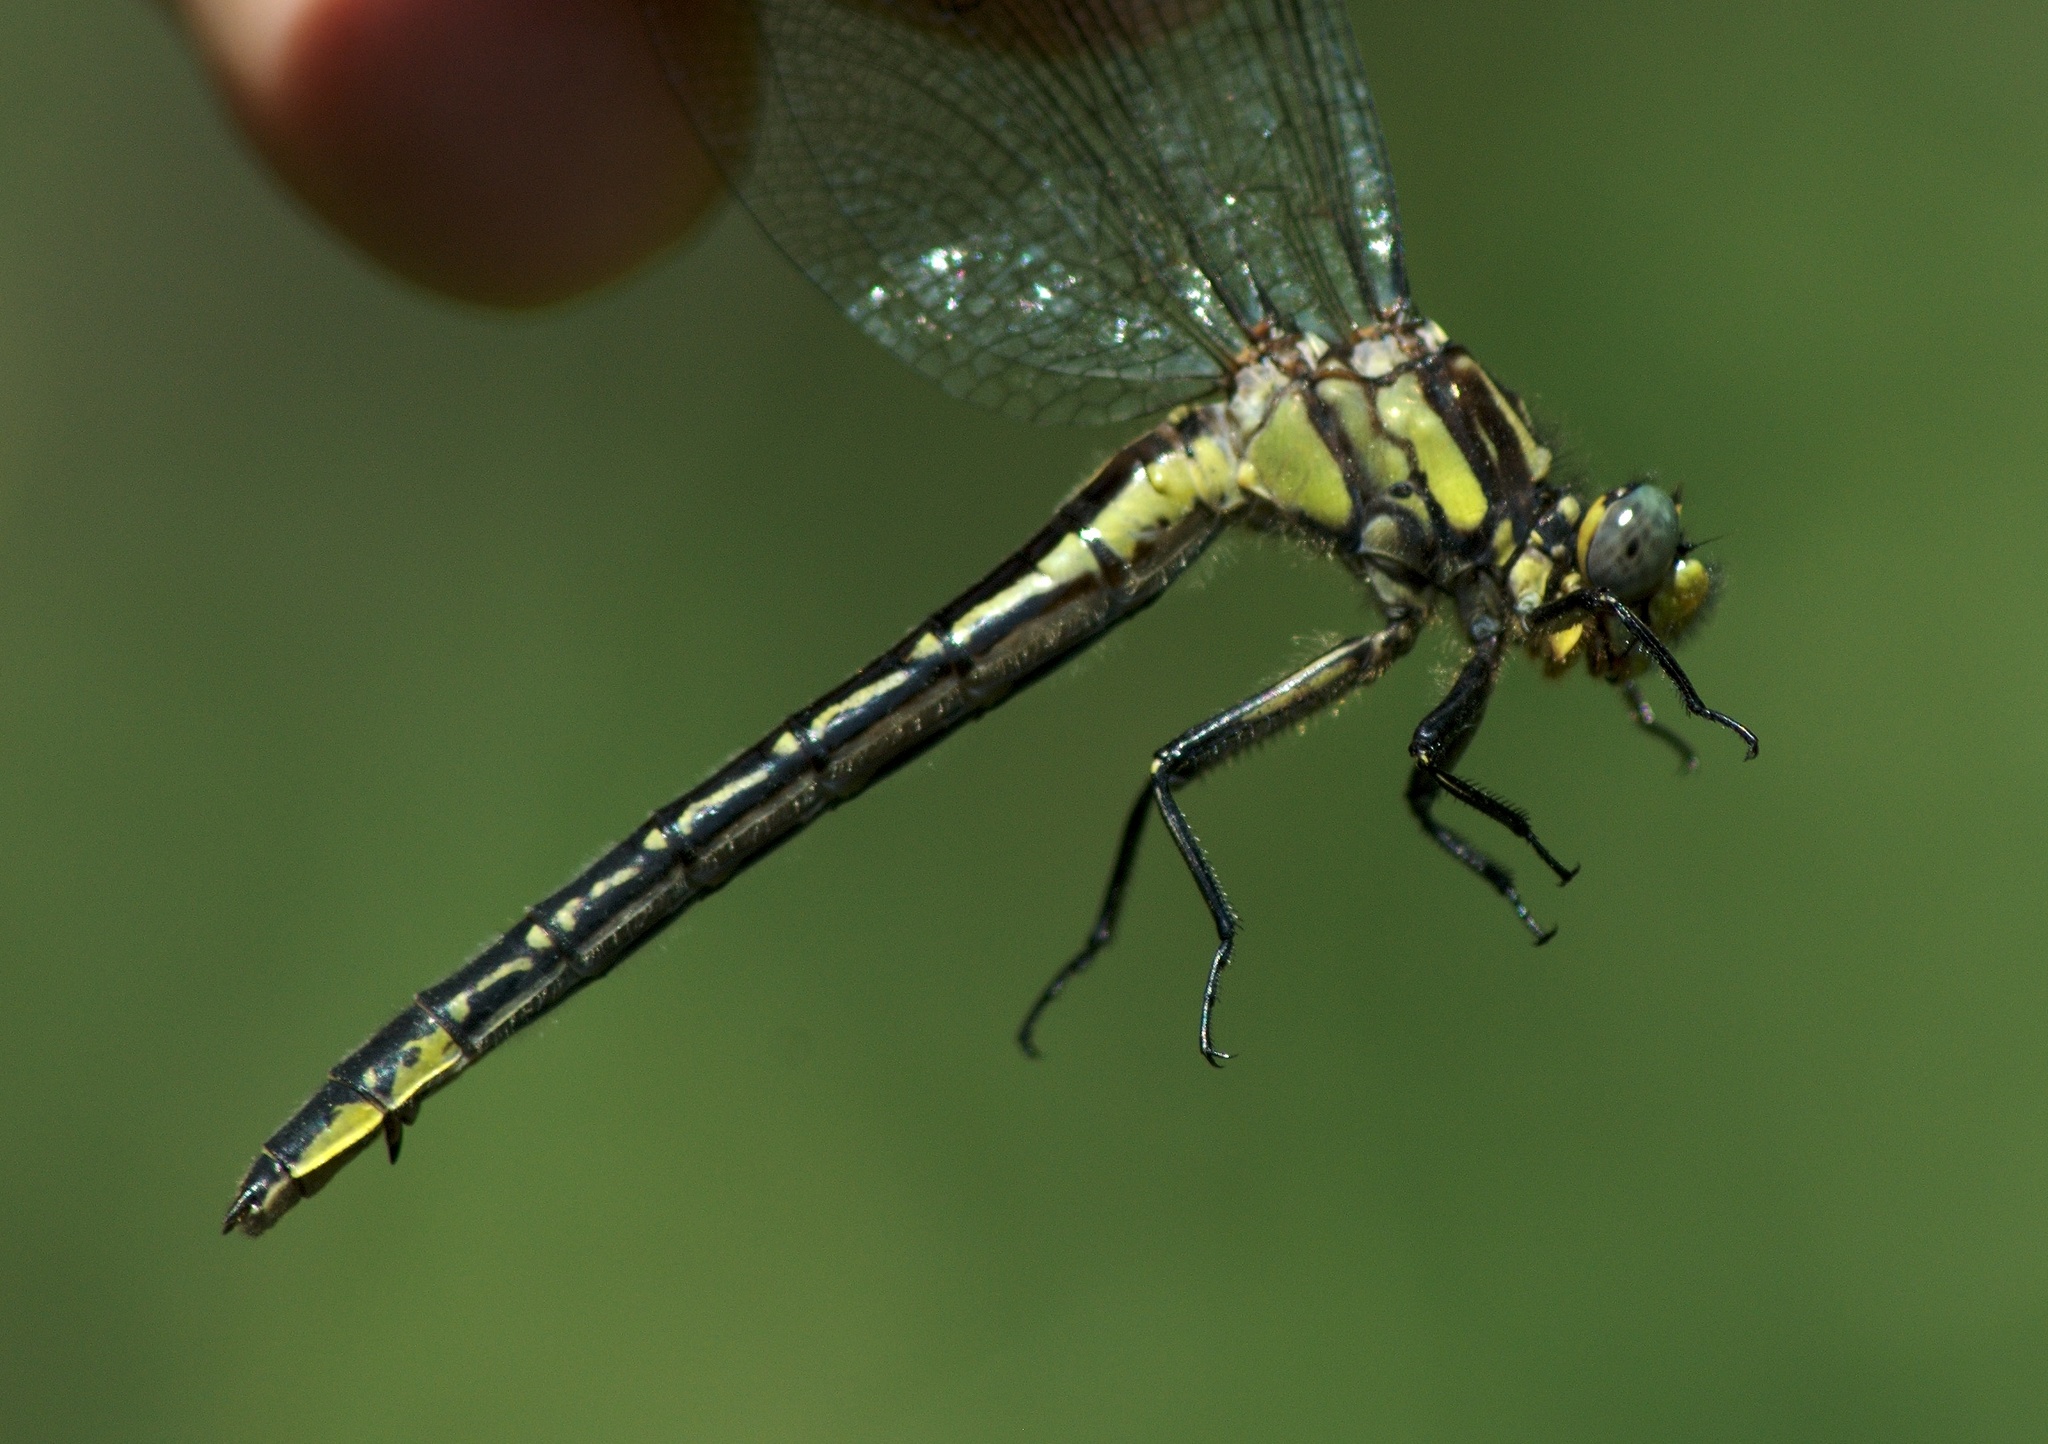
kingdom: Animalia
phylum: Arthropoda
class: Insecta
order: Odonata
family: Gomphidae
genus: Phanogomphus
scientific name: Phanogomphus descriptus
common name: Harpoon clubtail
